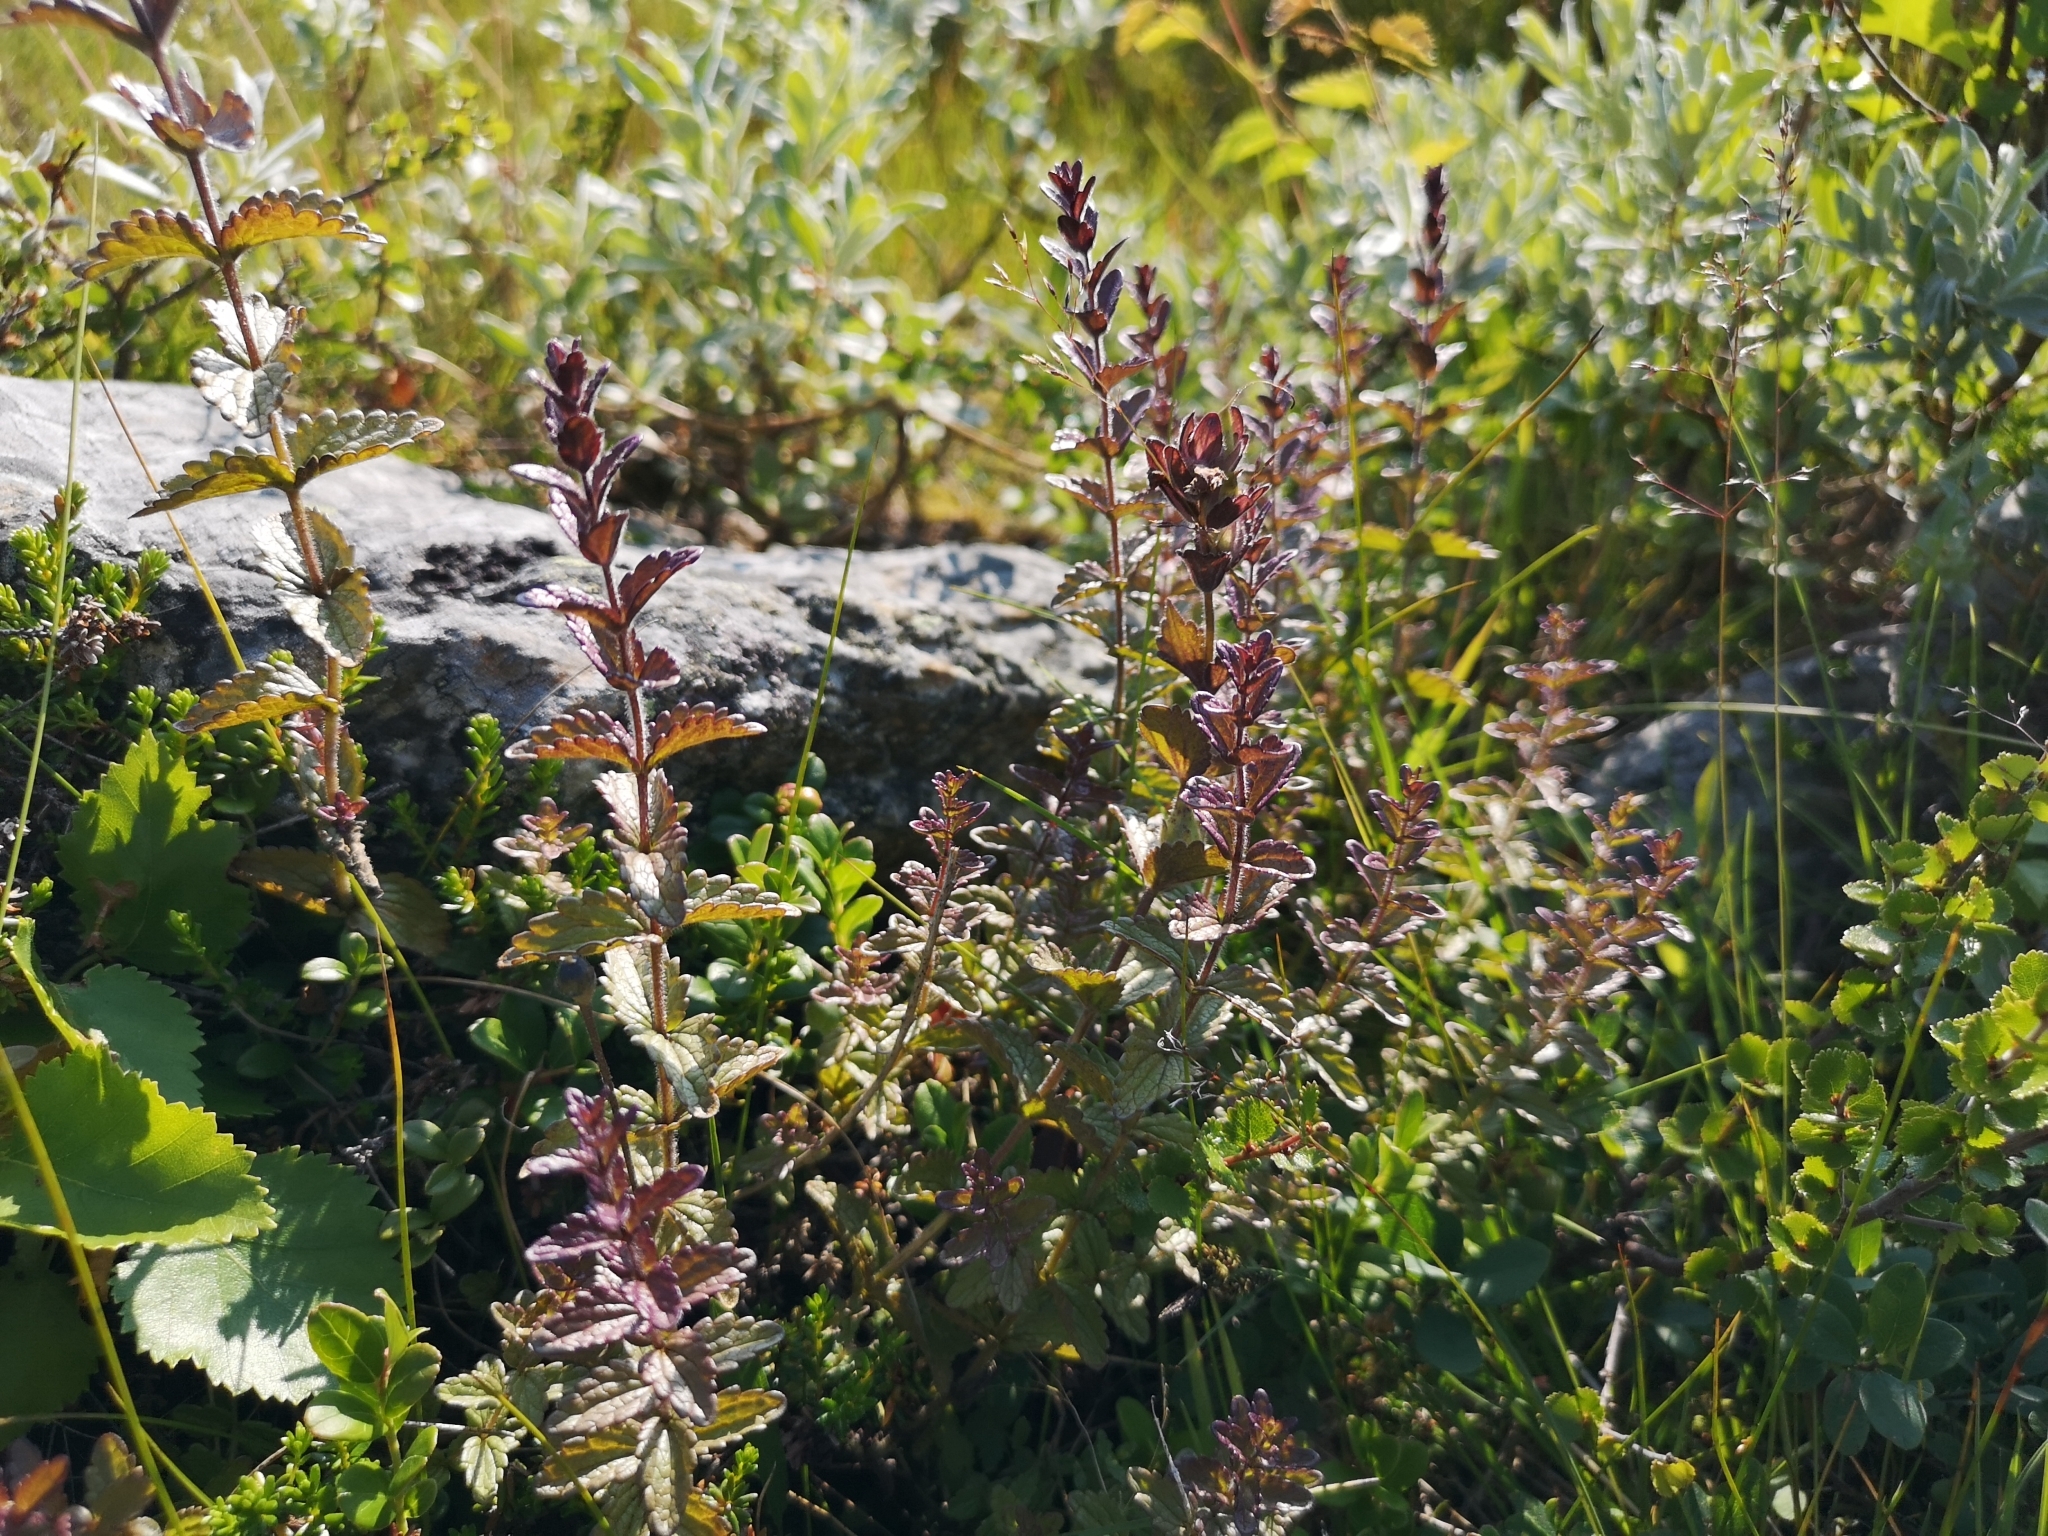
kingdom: Plantae
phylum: Tracheophyta
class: Magnoliopsida
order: Lamiales
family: Orobanchaceae
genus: Bartsia
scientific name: Bartsia alpina
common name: Alpine bartsia
